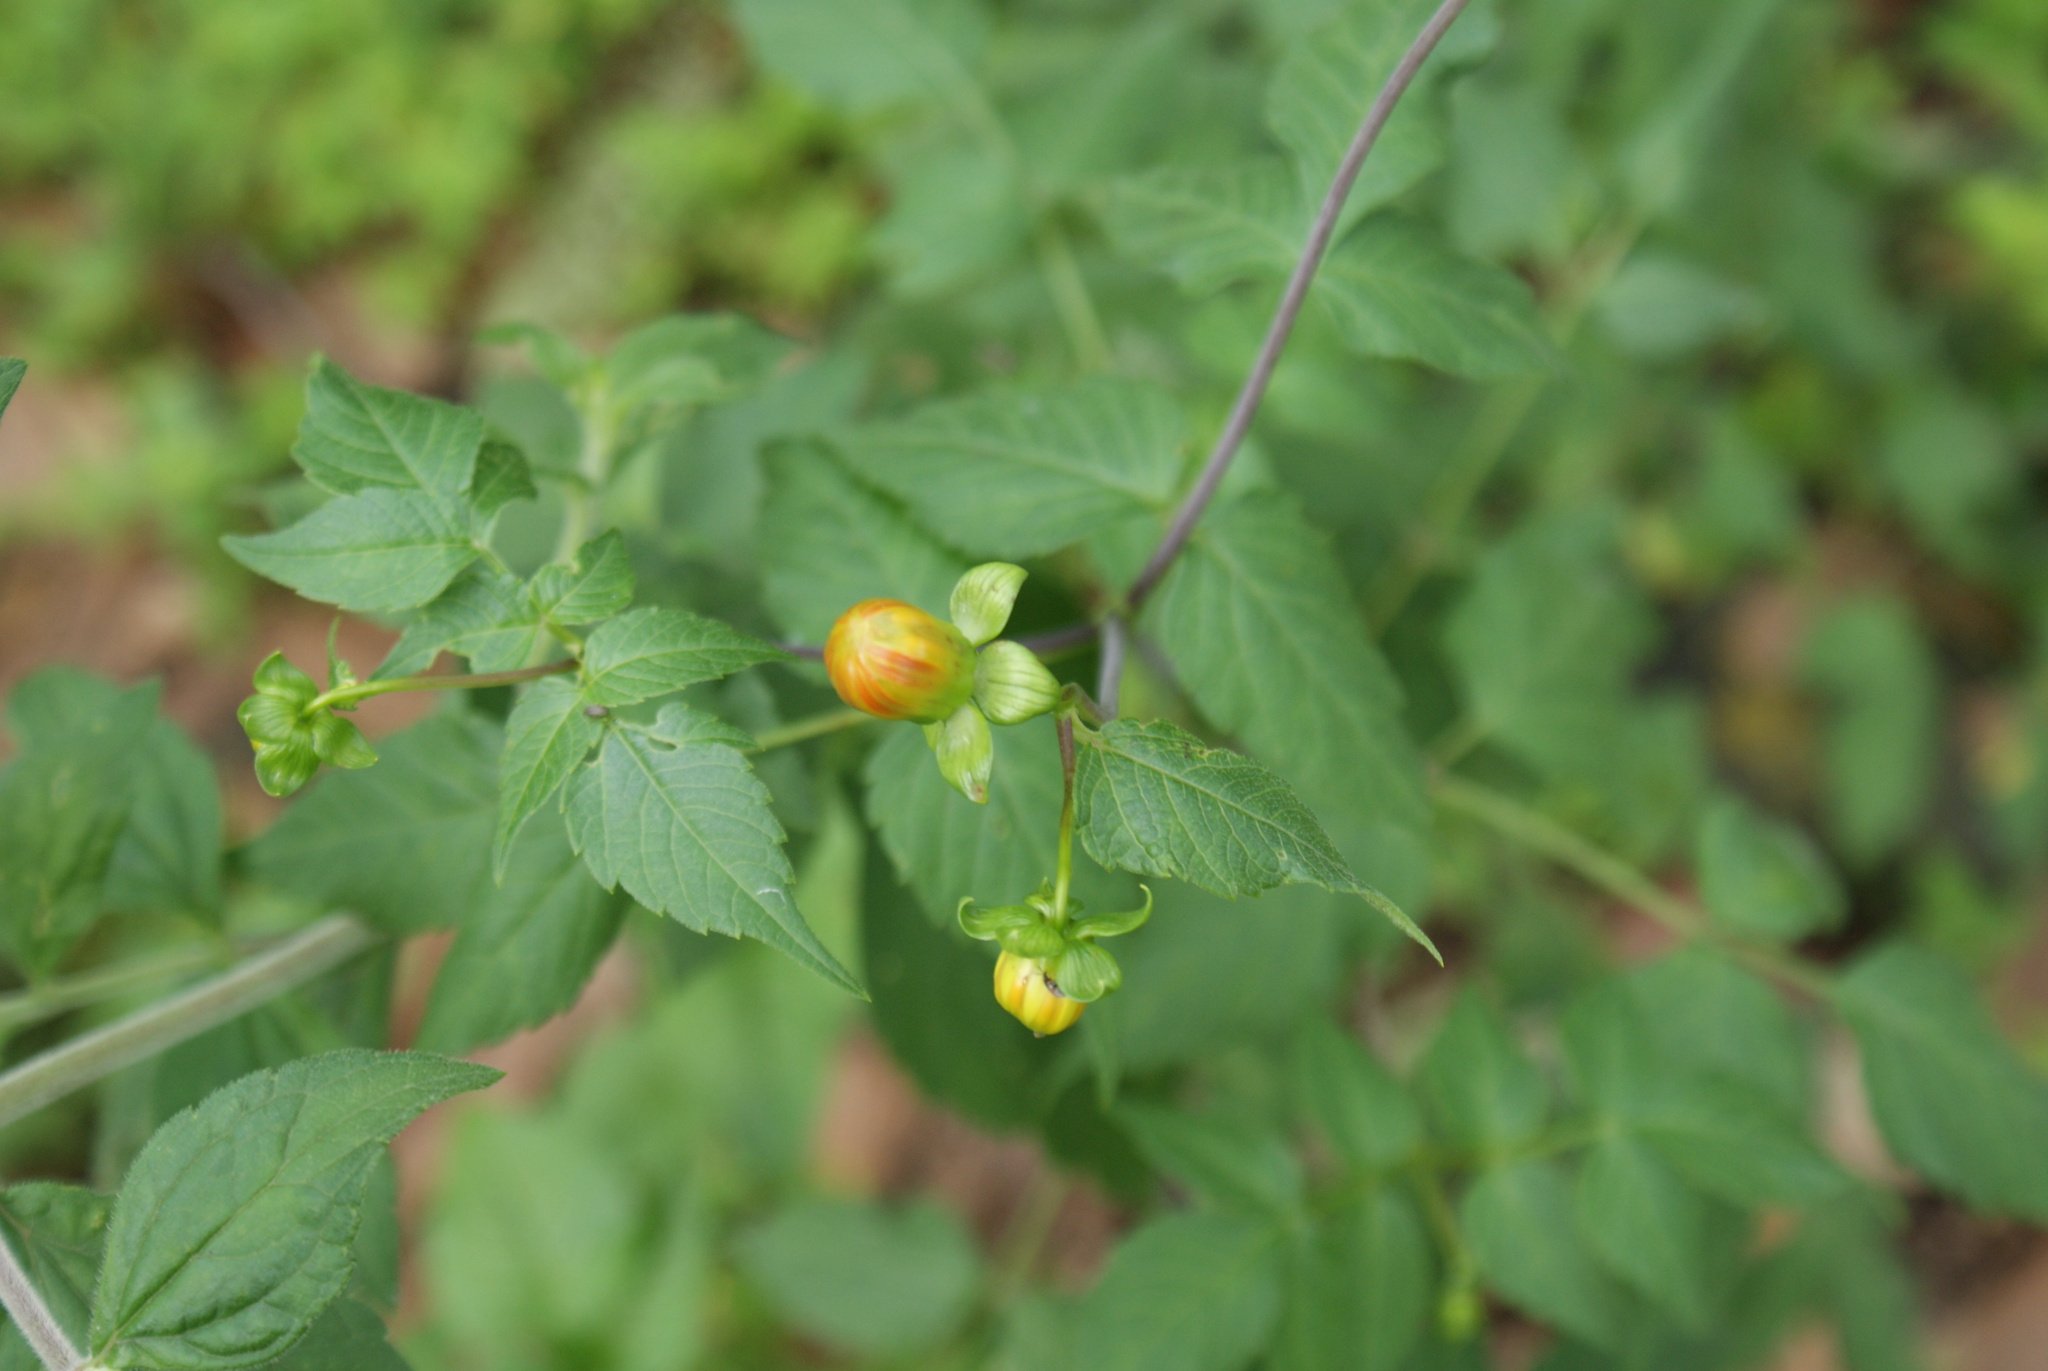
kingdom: Plantae
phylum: Tracheophyta
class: Magnoliopsida
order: Asterales
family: Asteraceae
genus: Dahlia
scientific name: Dahlia coccinea
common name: Red dahlia
